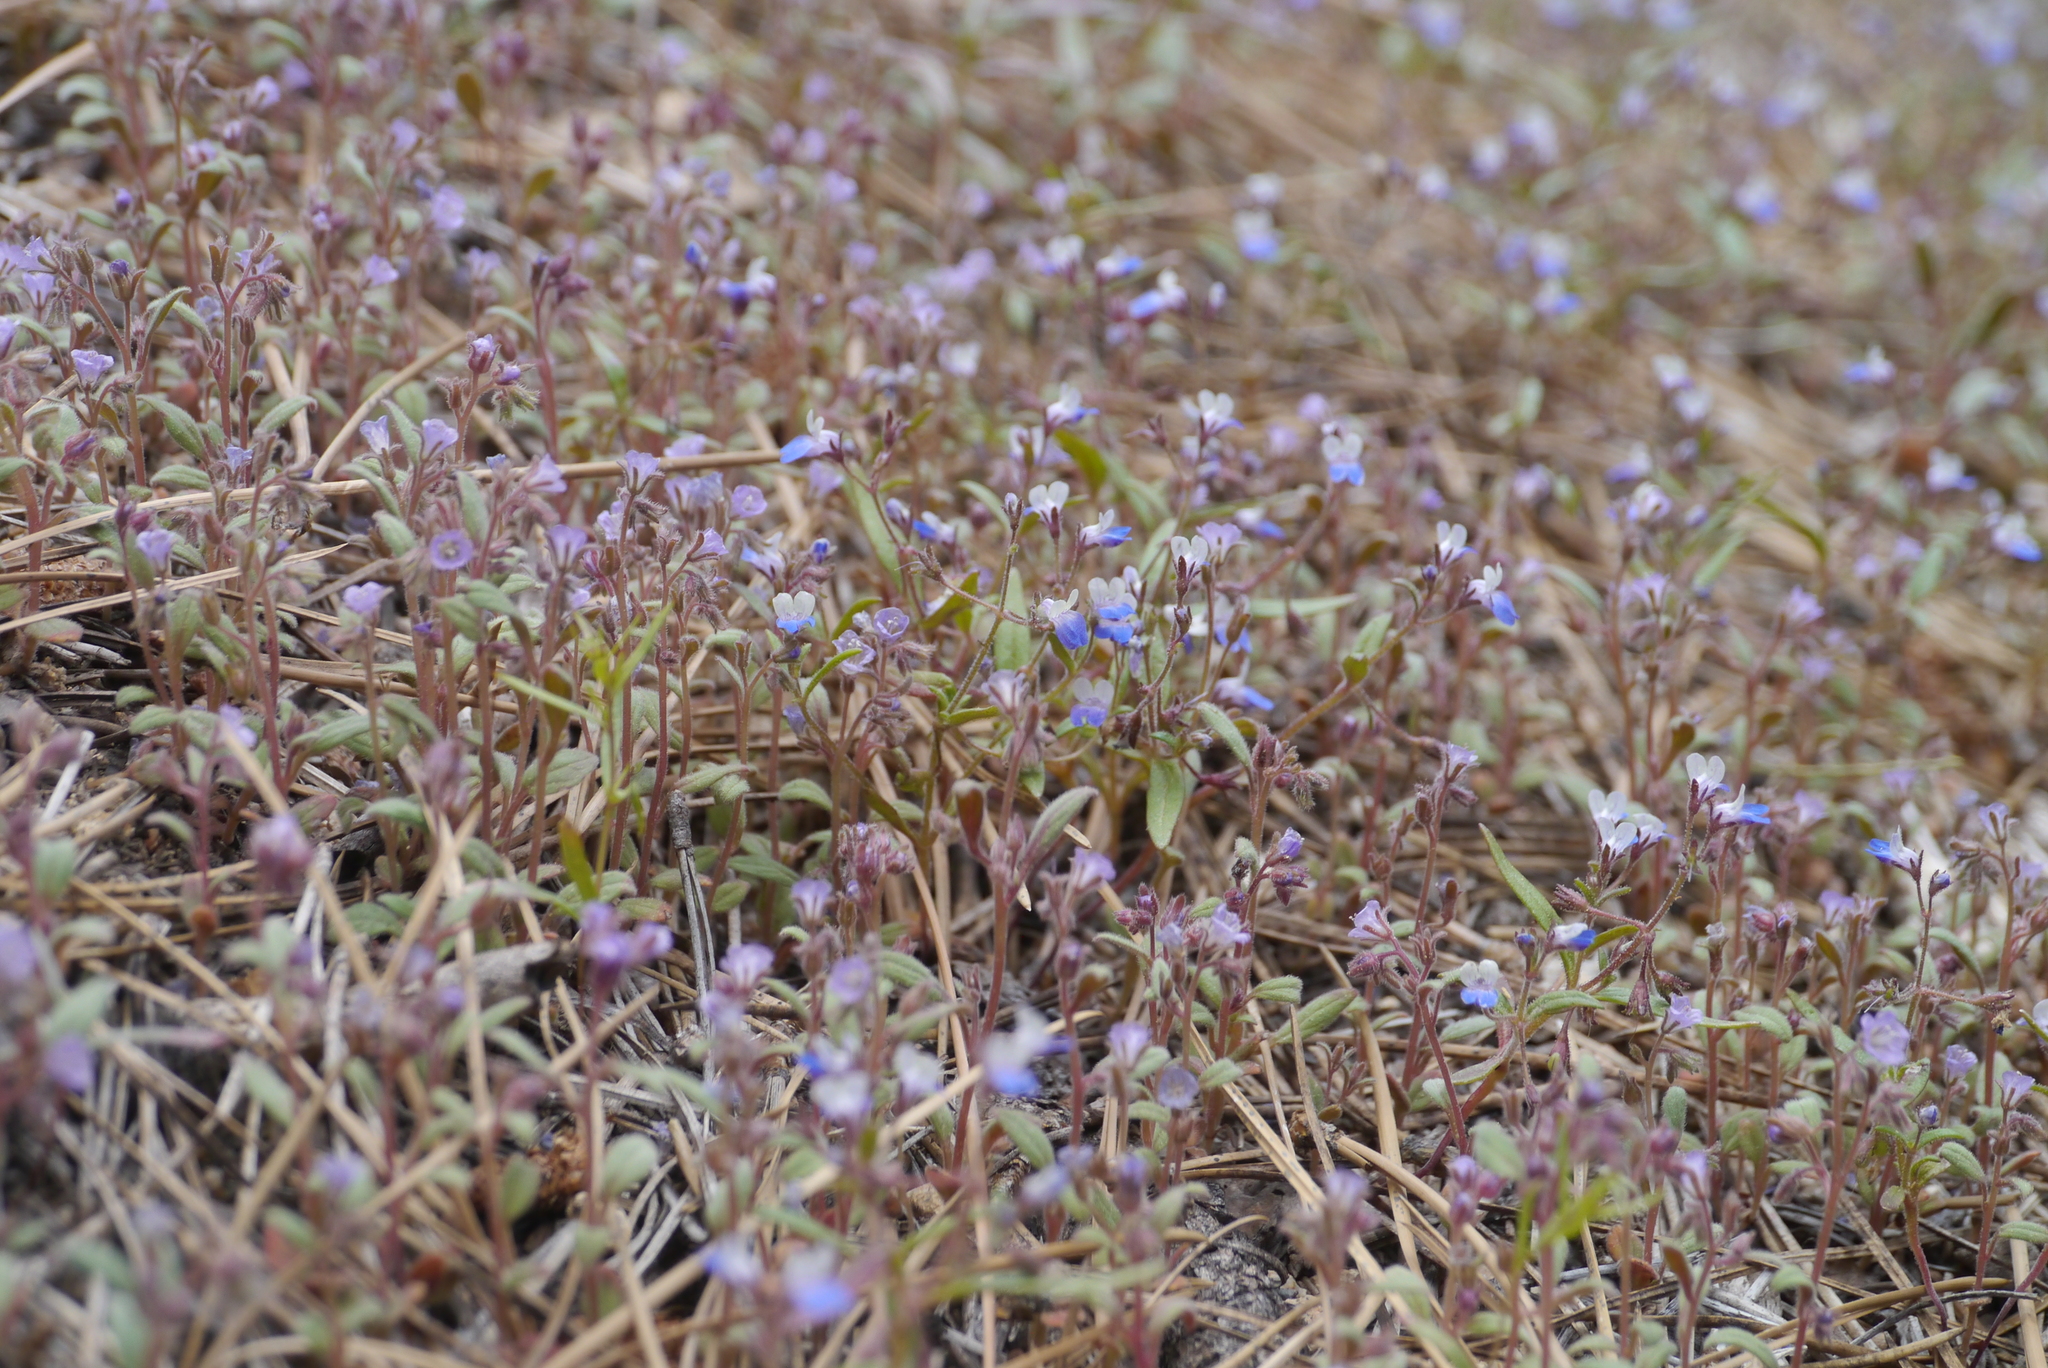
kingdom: Plantae
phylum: Tracheophyta
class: Magnoliopsida
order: Lamiales
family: Plantaginaceae
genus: Collinsia
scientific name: Collinsia torreyi
